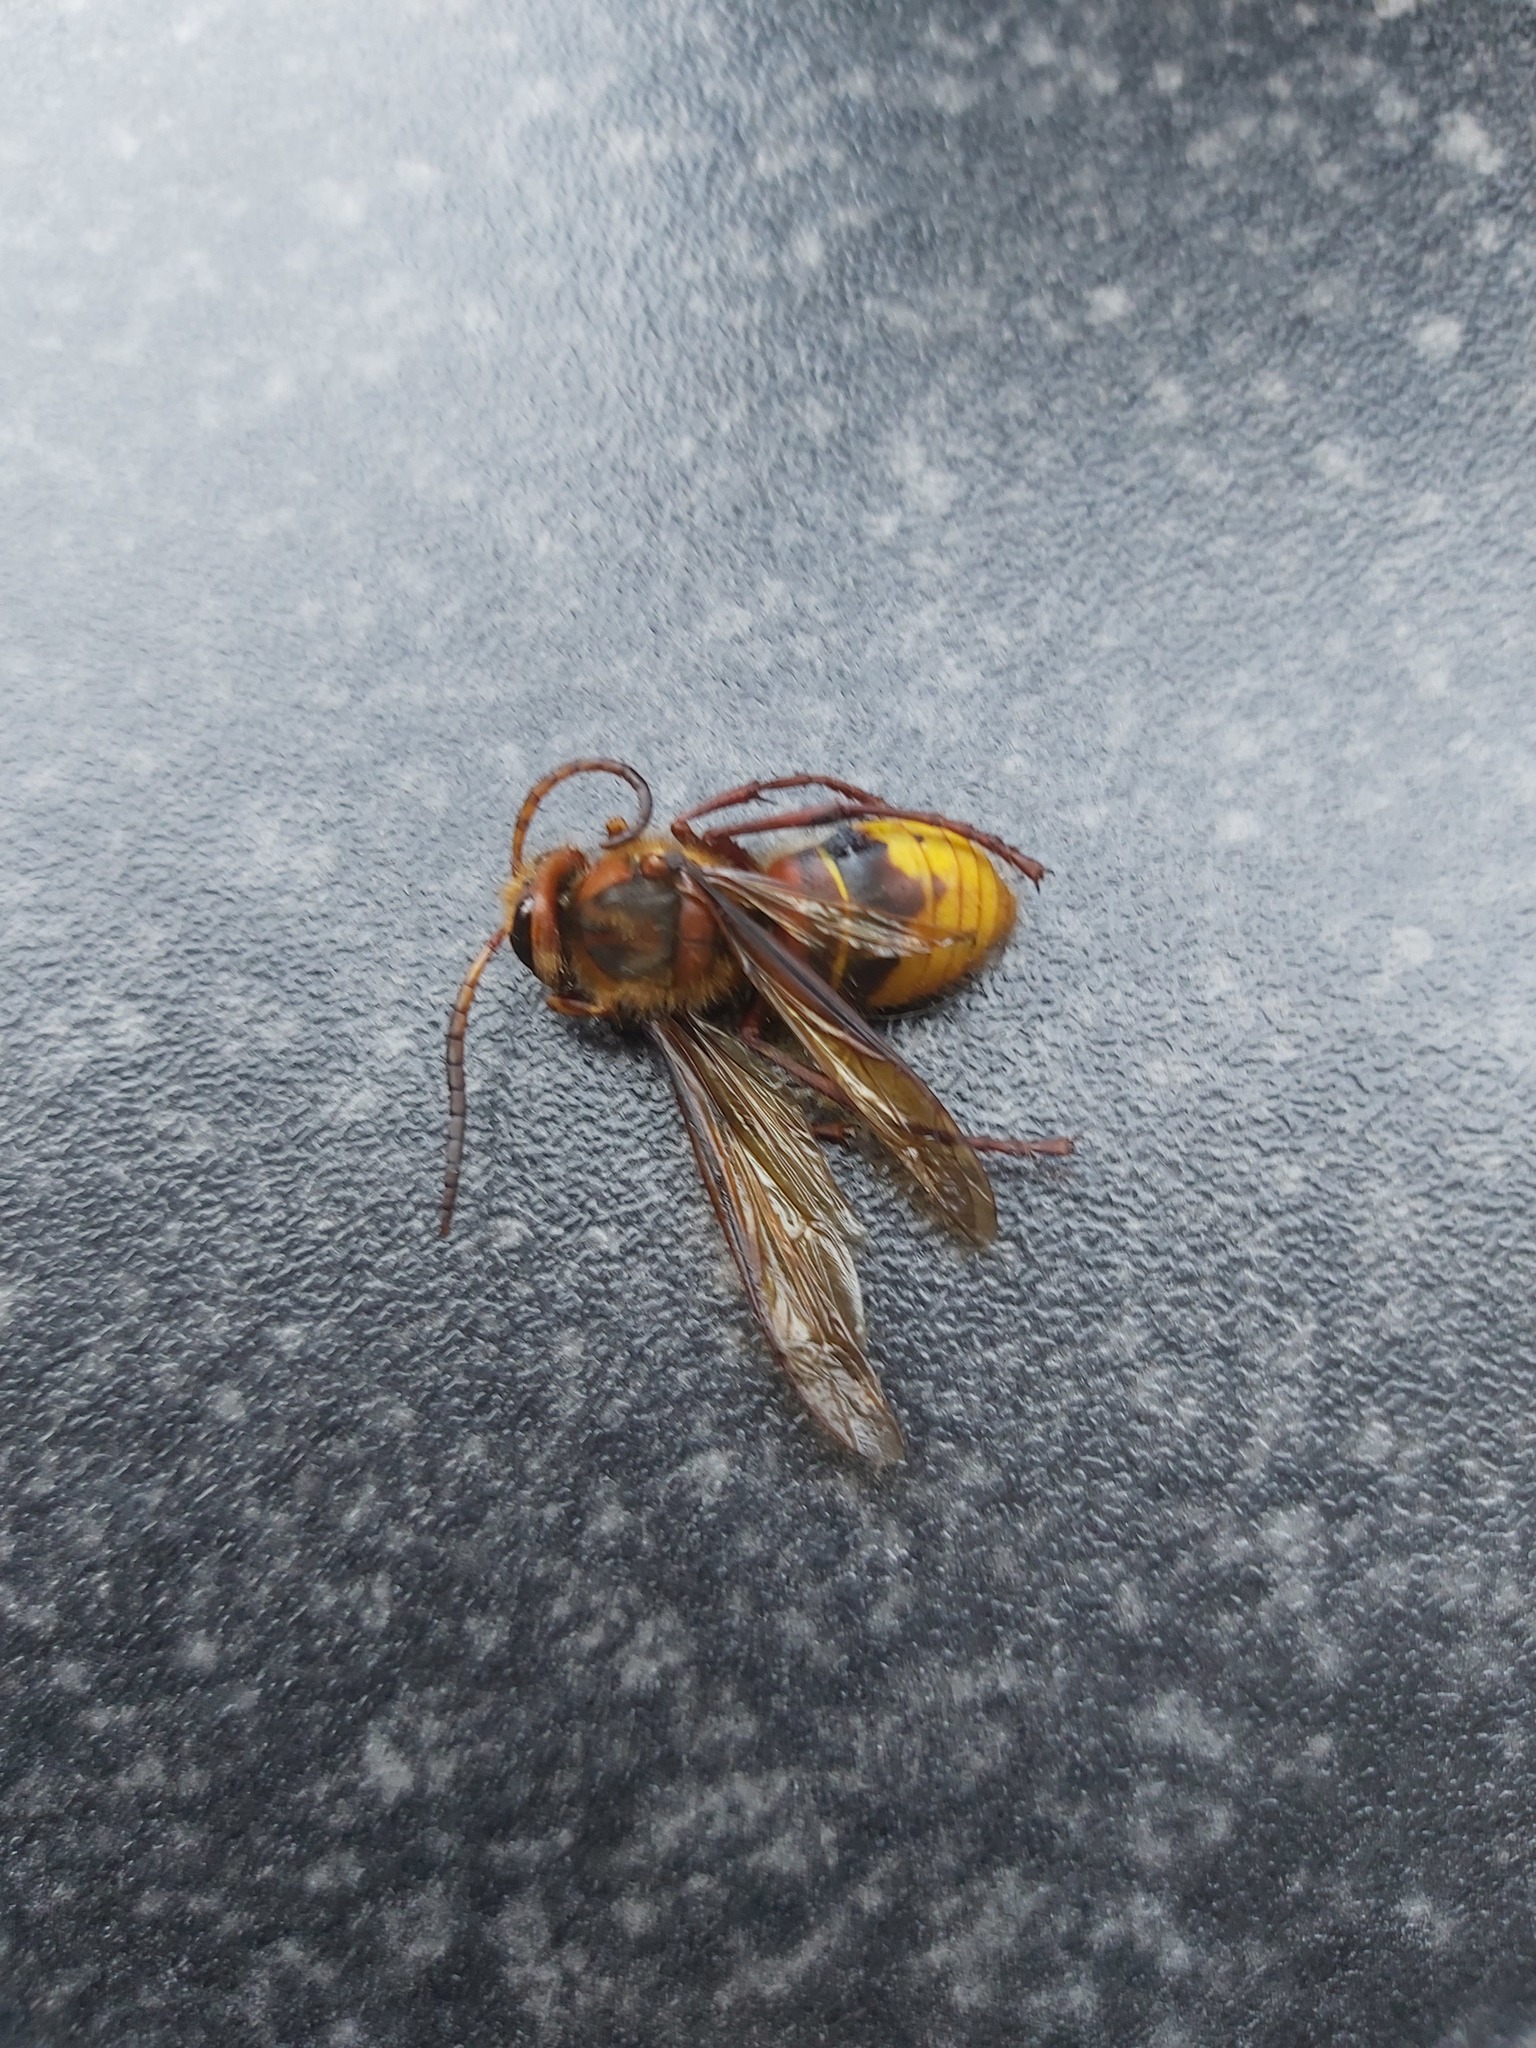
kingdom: Animalia
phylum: Arthropoda
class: Insecta
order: Hymenoptera
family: Vespidae
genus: Vespa
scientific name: Vespa crabro
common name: Hornet
